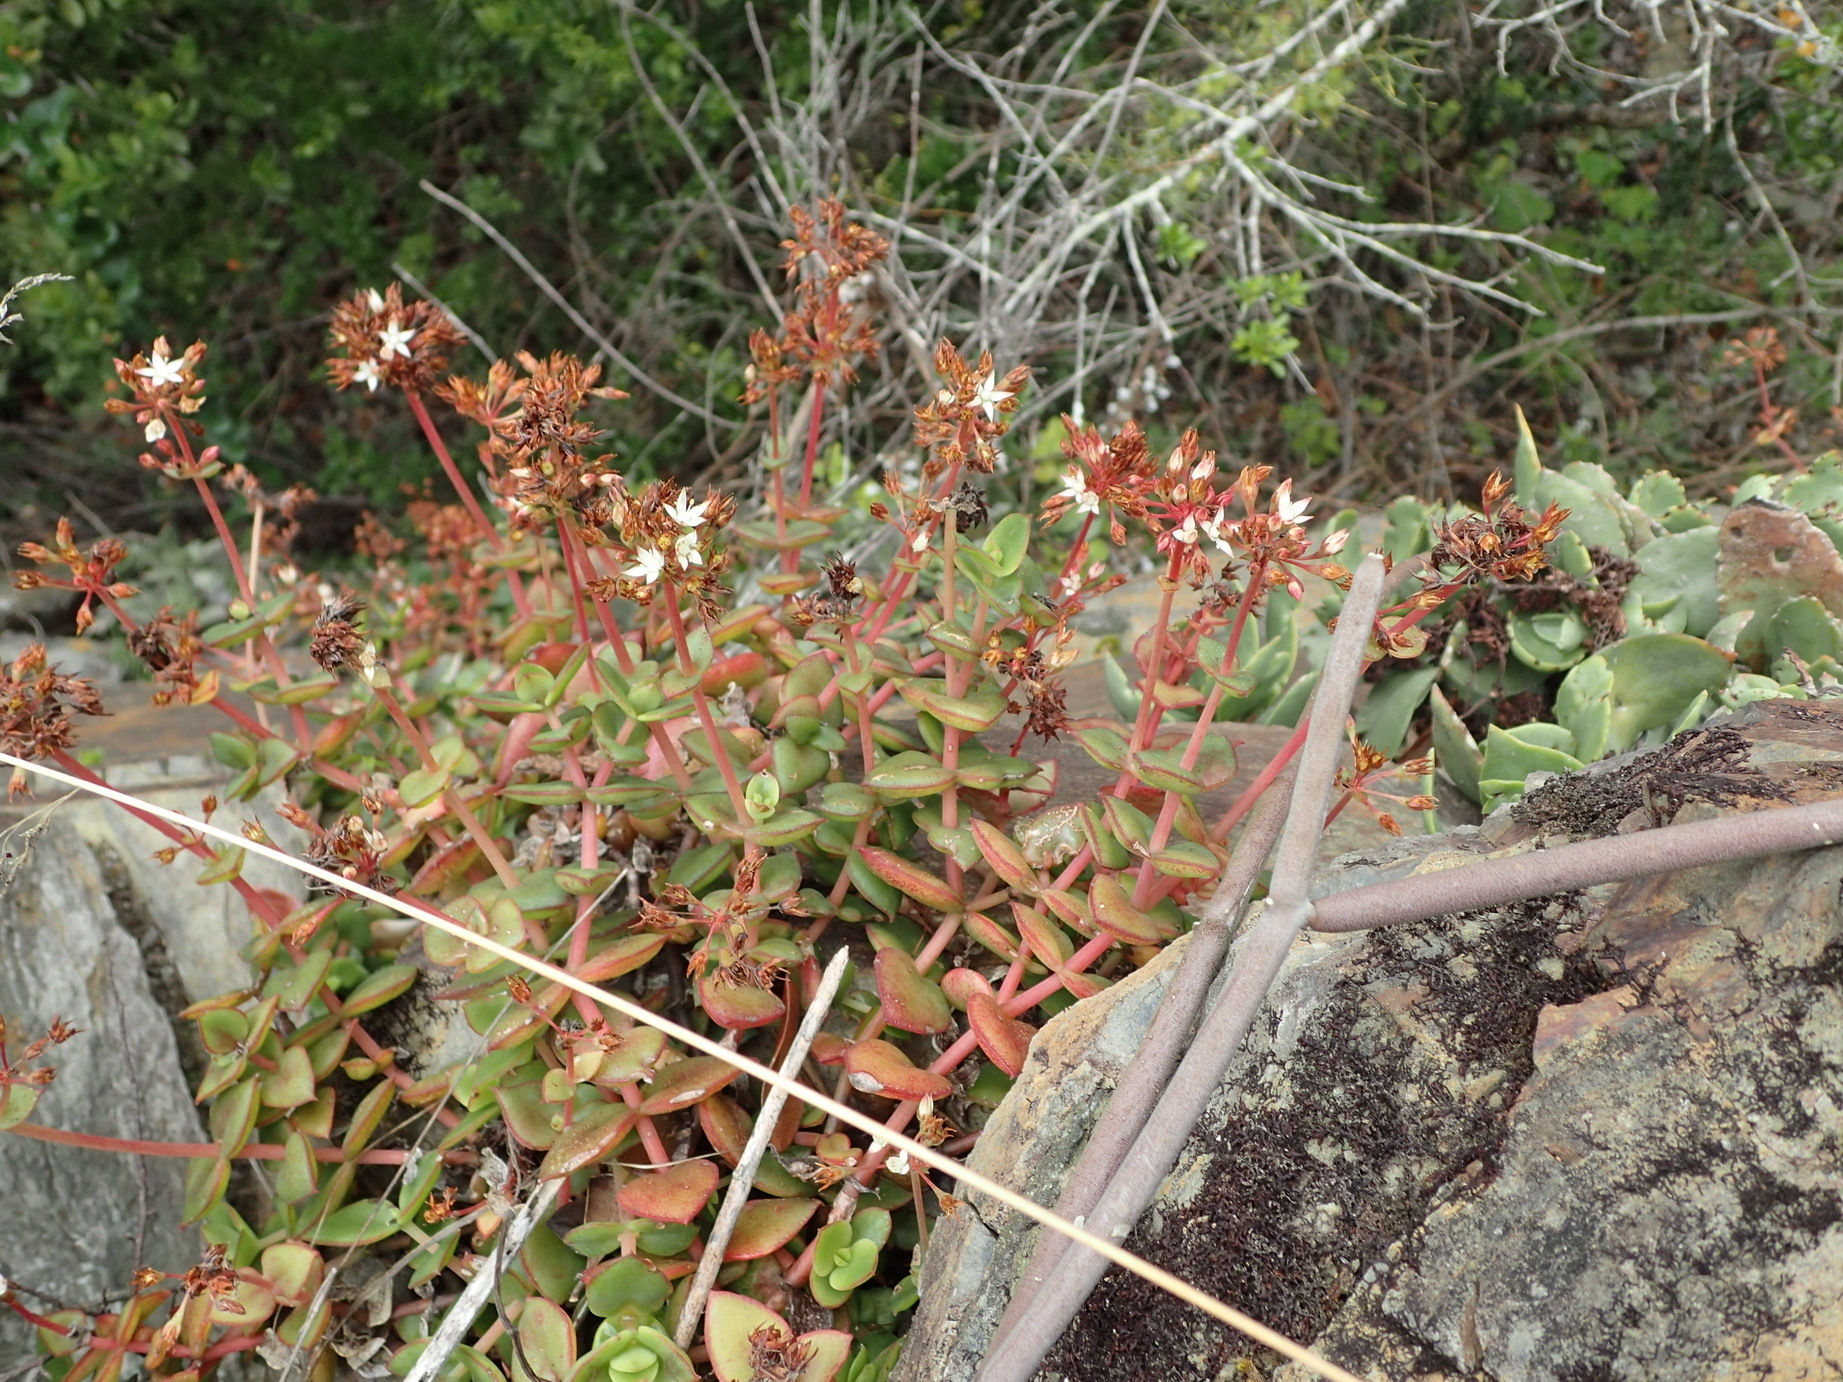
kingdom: Plantae
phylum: Tracheophyta
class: Magnoliopsida
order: Saxifragales
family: Crassulaceae
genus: Crassula
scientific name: Crassula pellucida
